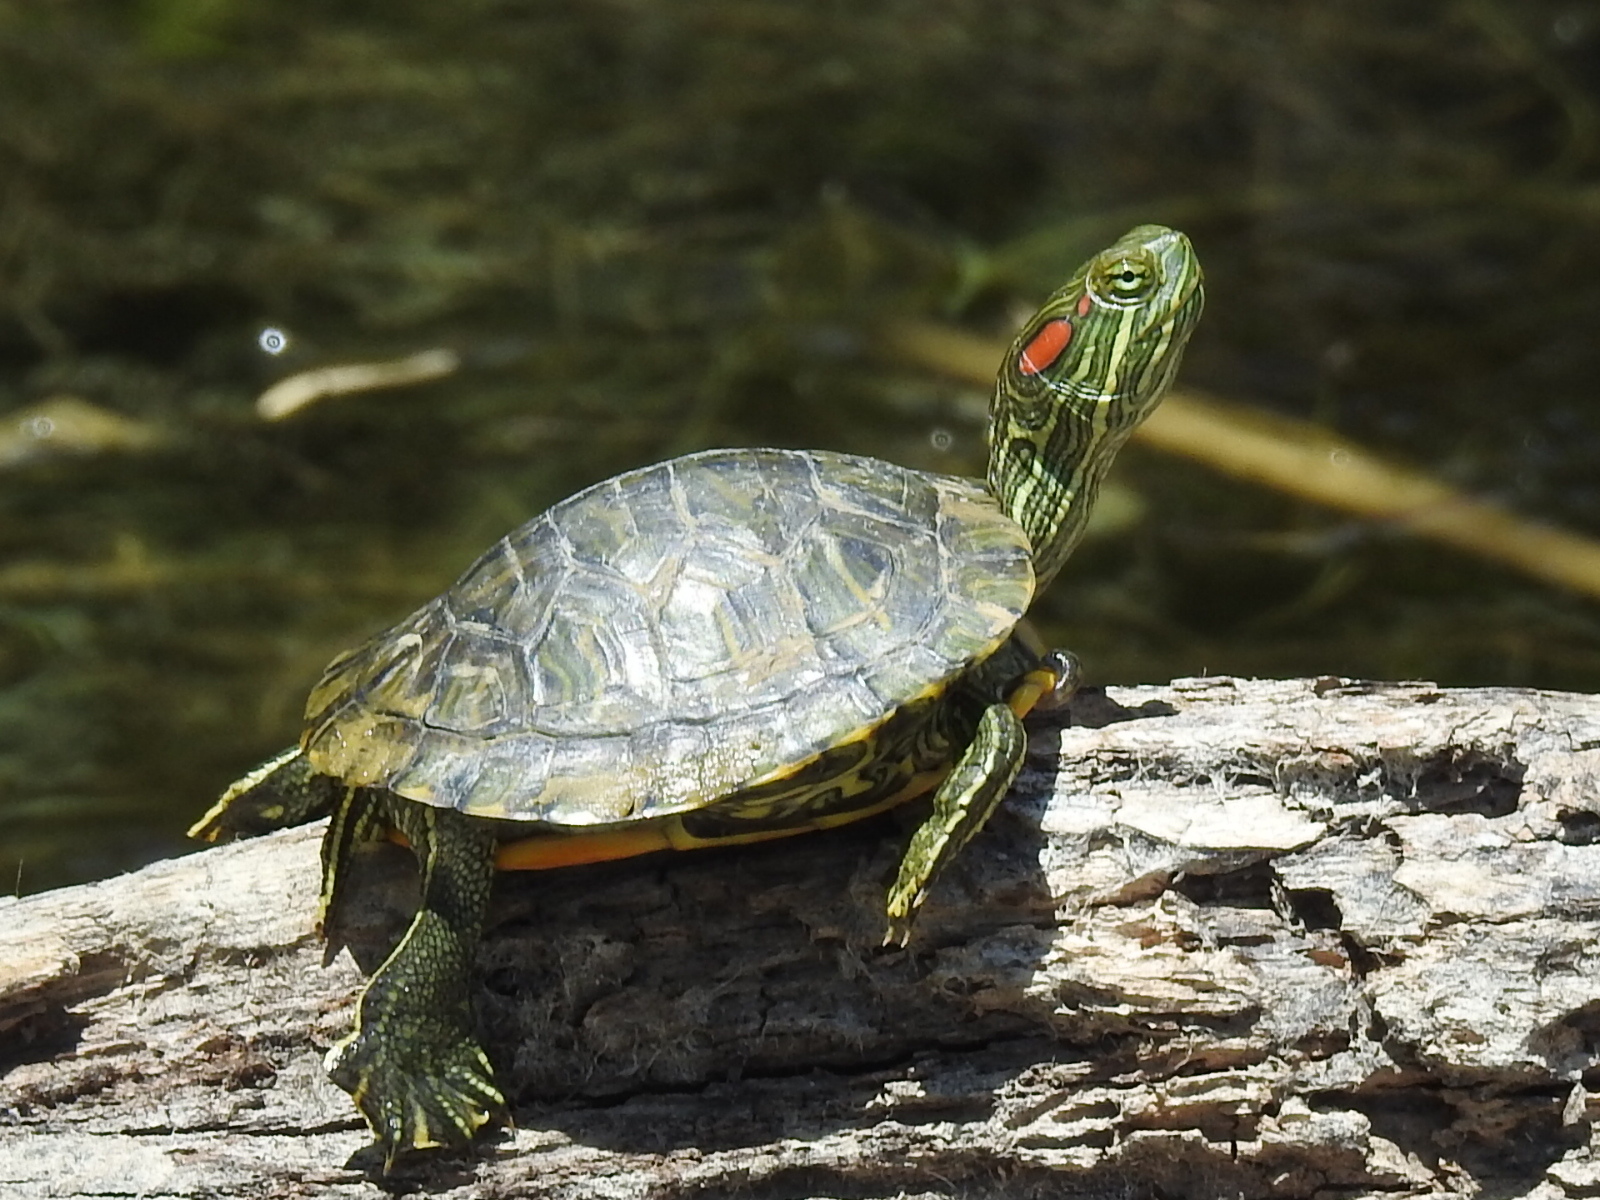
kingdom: Animalia
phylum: Chordata
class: Testudines
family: Emydidae
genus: Trachemys
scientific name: Trachemys scripta
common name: Slider
